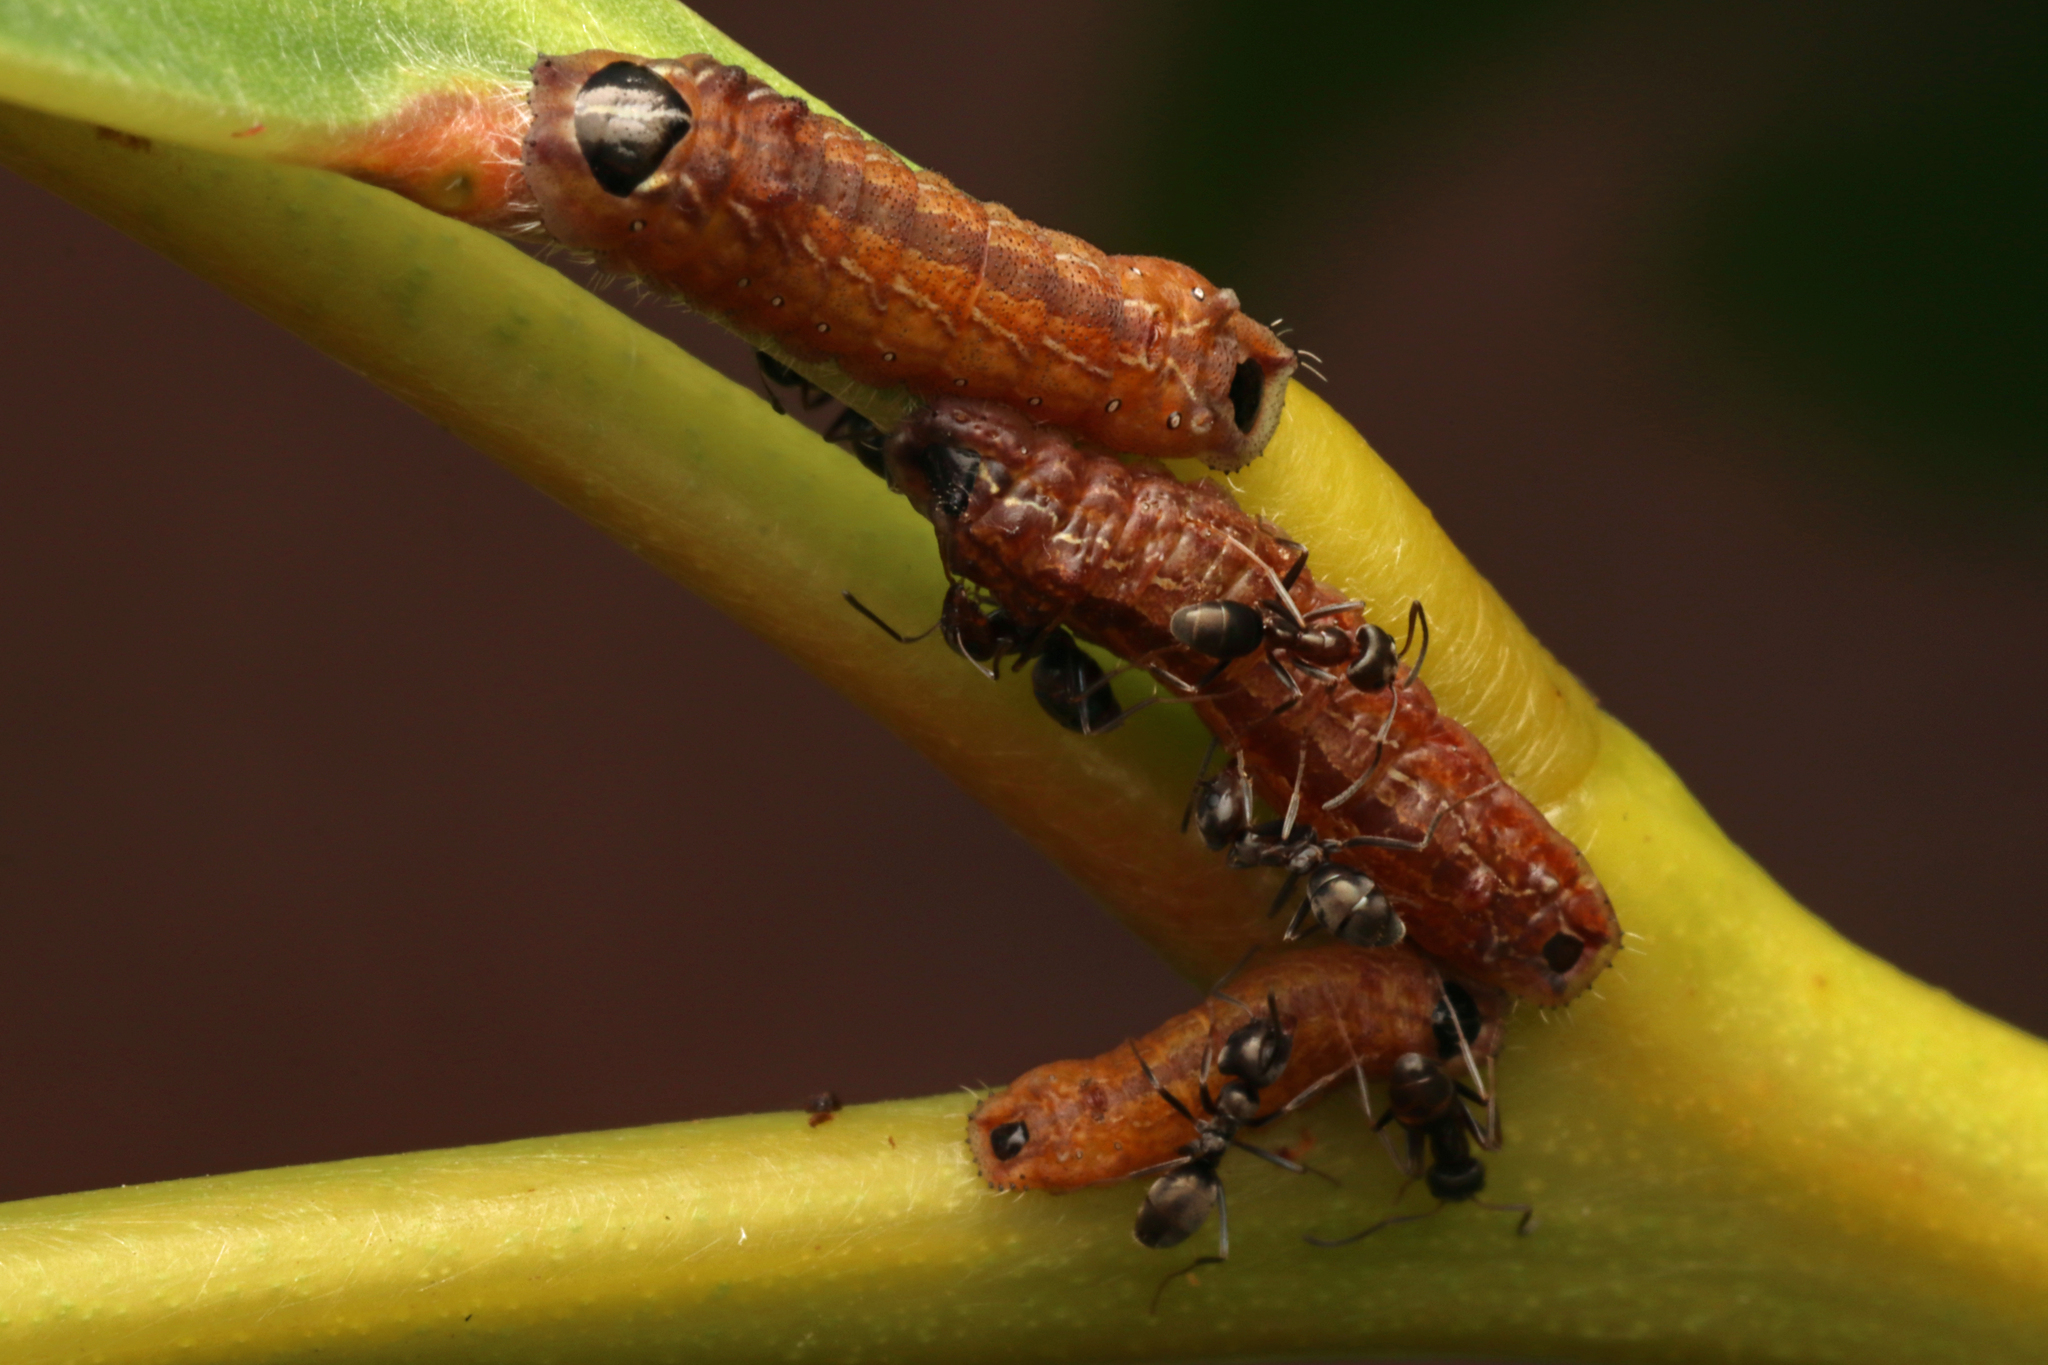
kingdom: Animalia
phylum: Arthropoda
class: Insecta
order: Lepidoptera
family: Lycaenidae
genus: Jalmenus
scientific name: Jalmenus icilius
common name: Amethyst hairstreak
